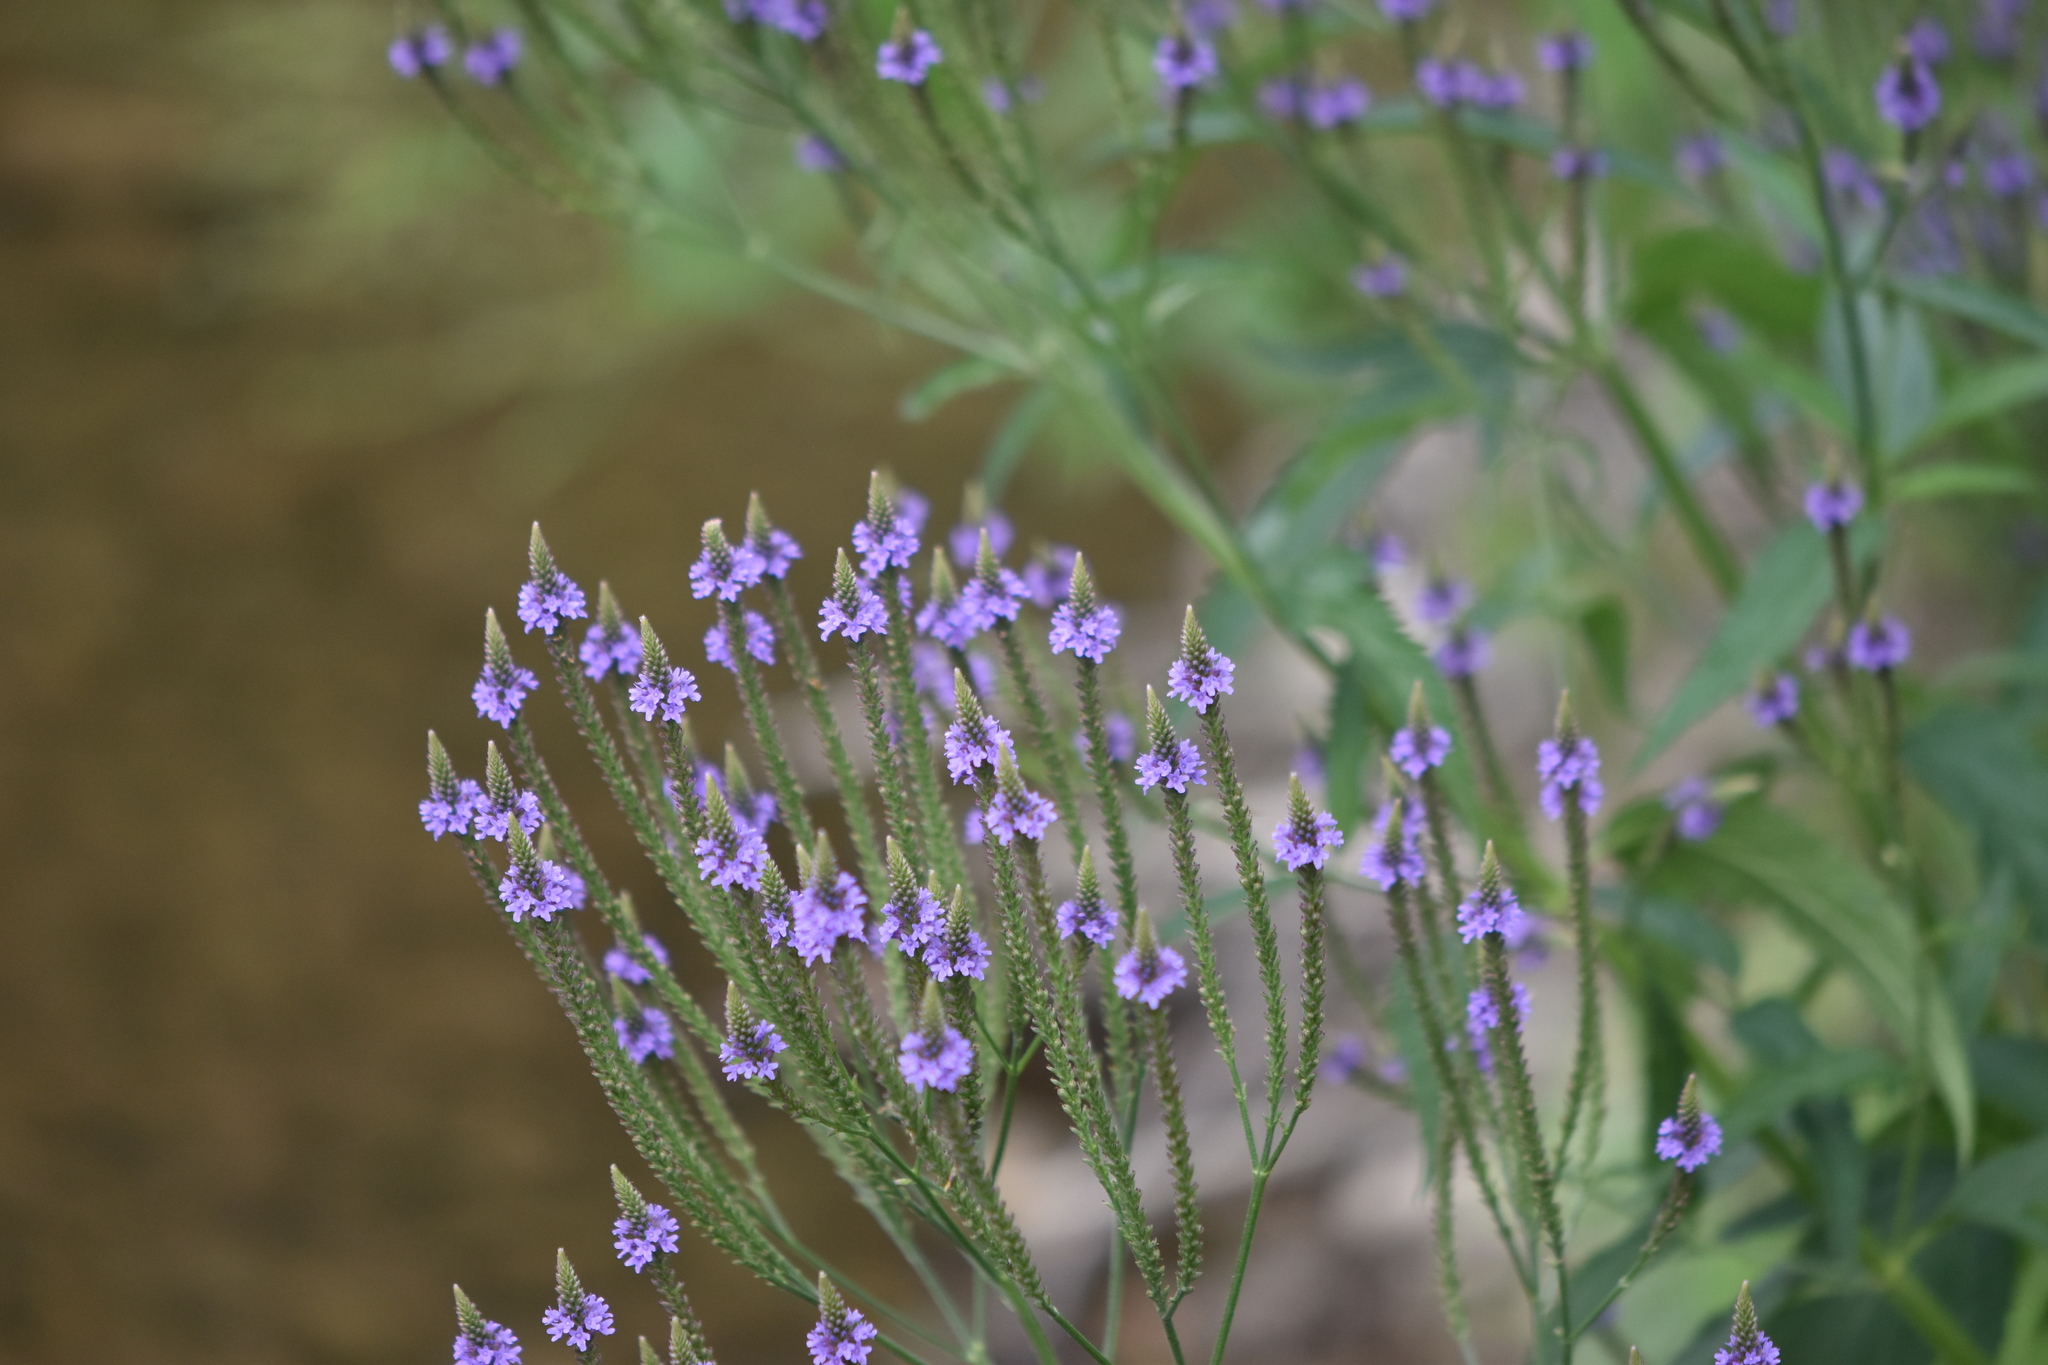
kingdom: Plantae
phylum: Tracheophyta
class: Magnoliopsida
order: Lamiales
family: Verbenaceae
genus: Verbena
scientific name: Verbena hastata
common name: American blue vervain
